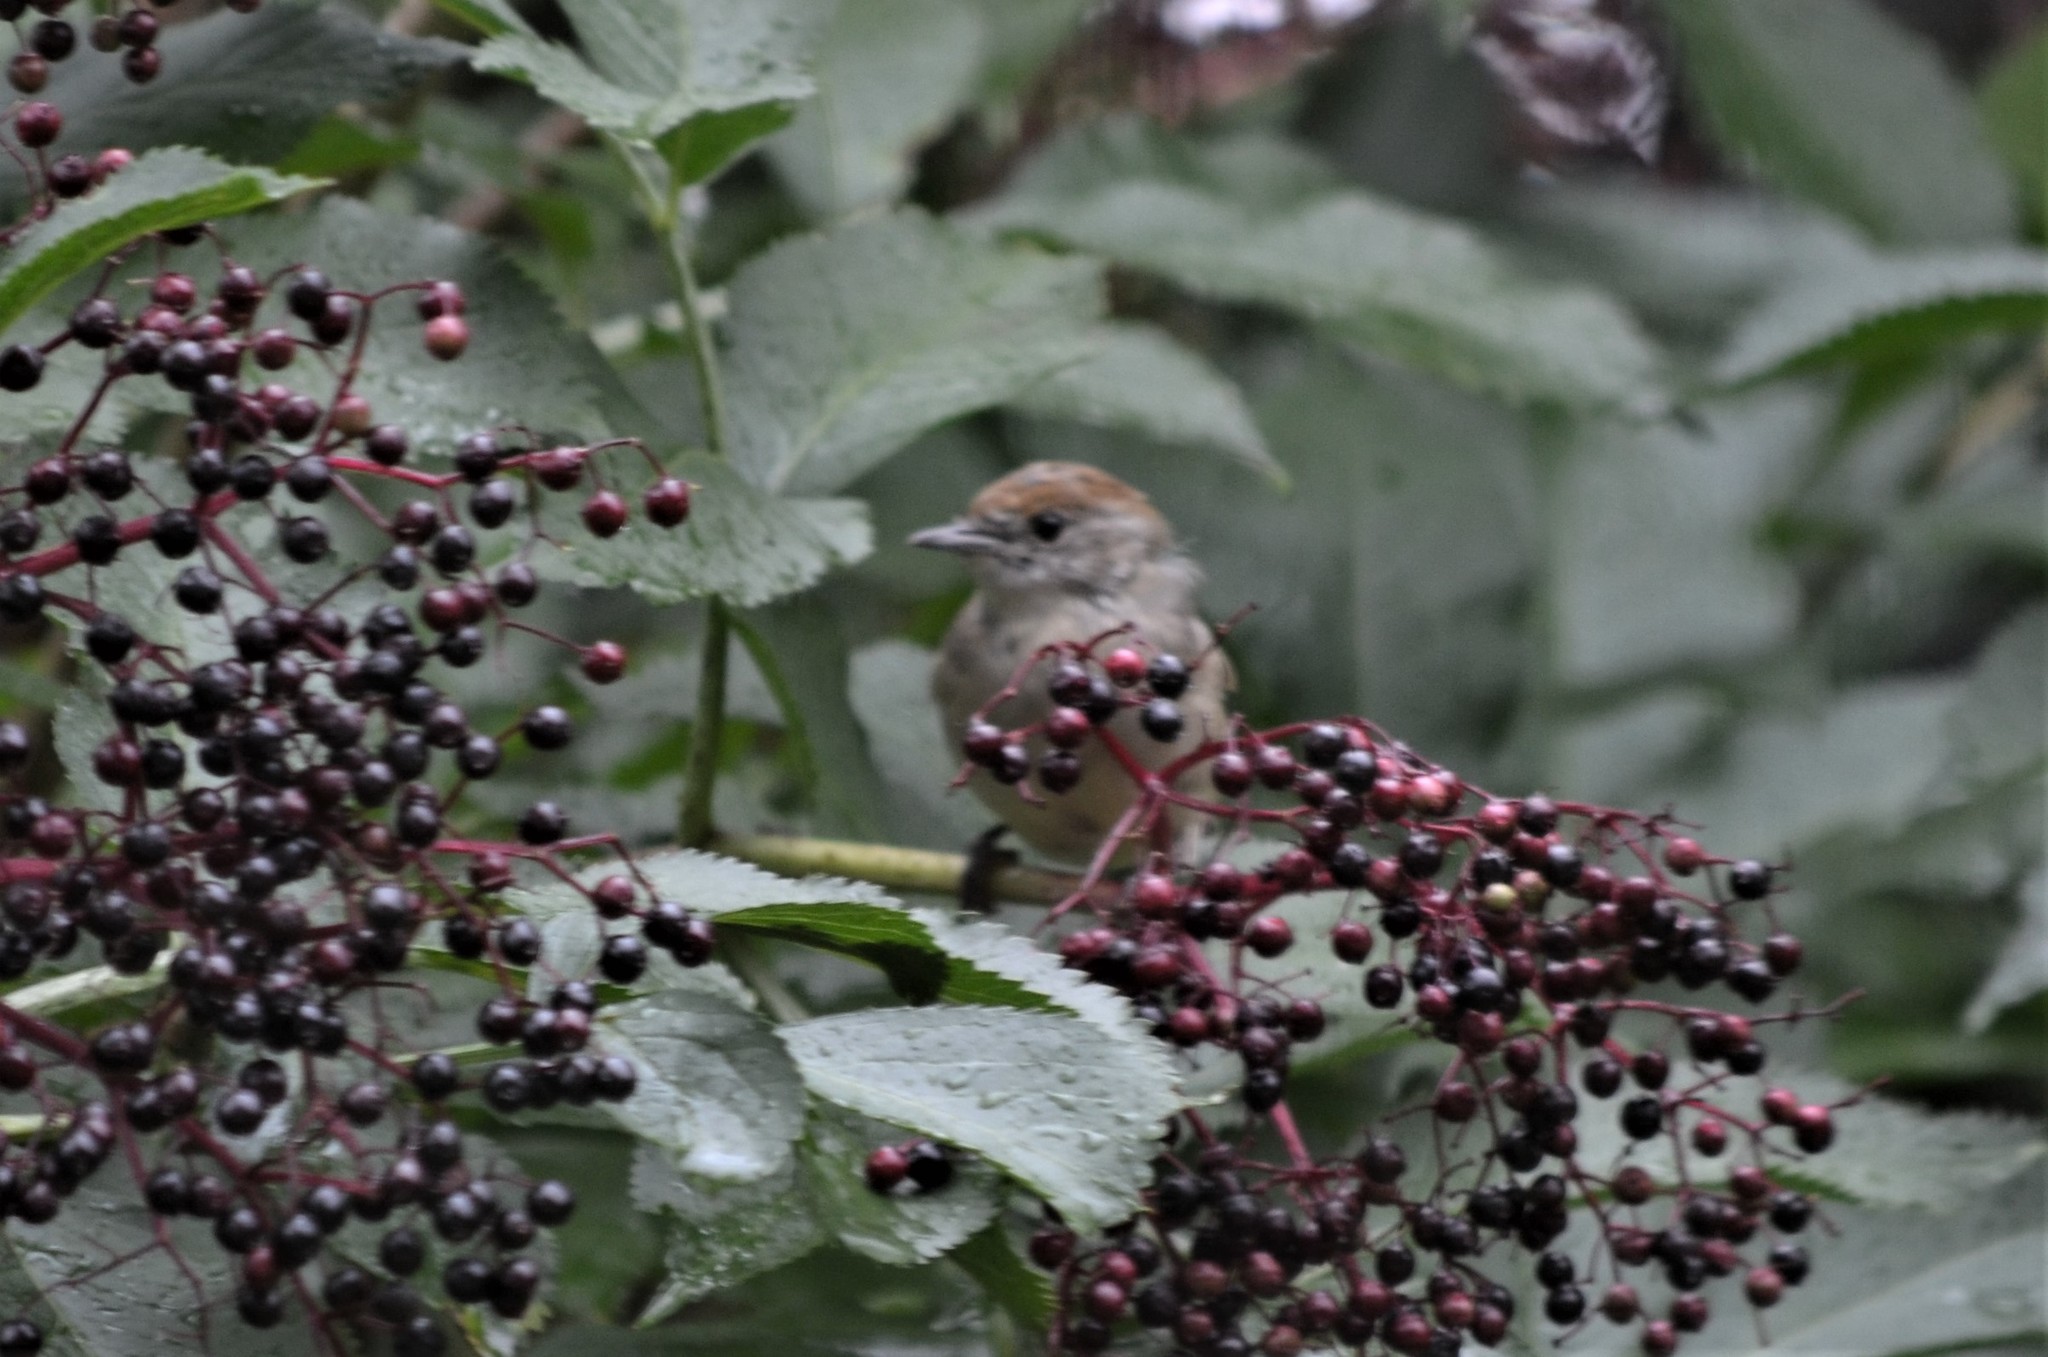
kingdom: Animalia
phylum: Chordata
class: Aves
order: Passeriformes
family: Sylviidae
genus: Sylvia
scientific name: Sylvia atricapilla
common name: Eurasian blackcap
